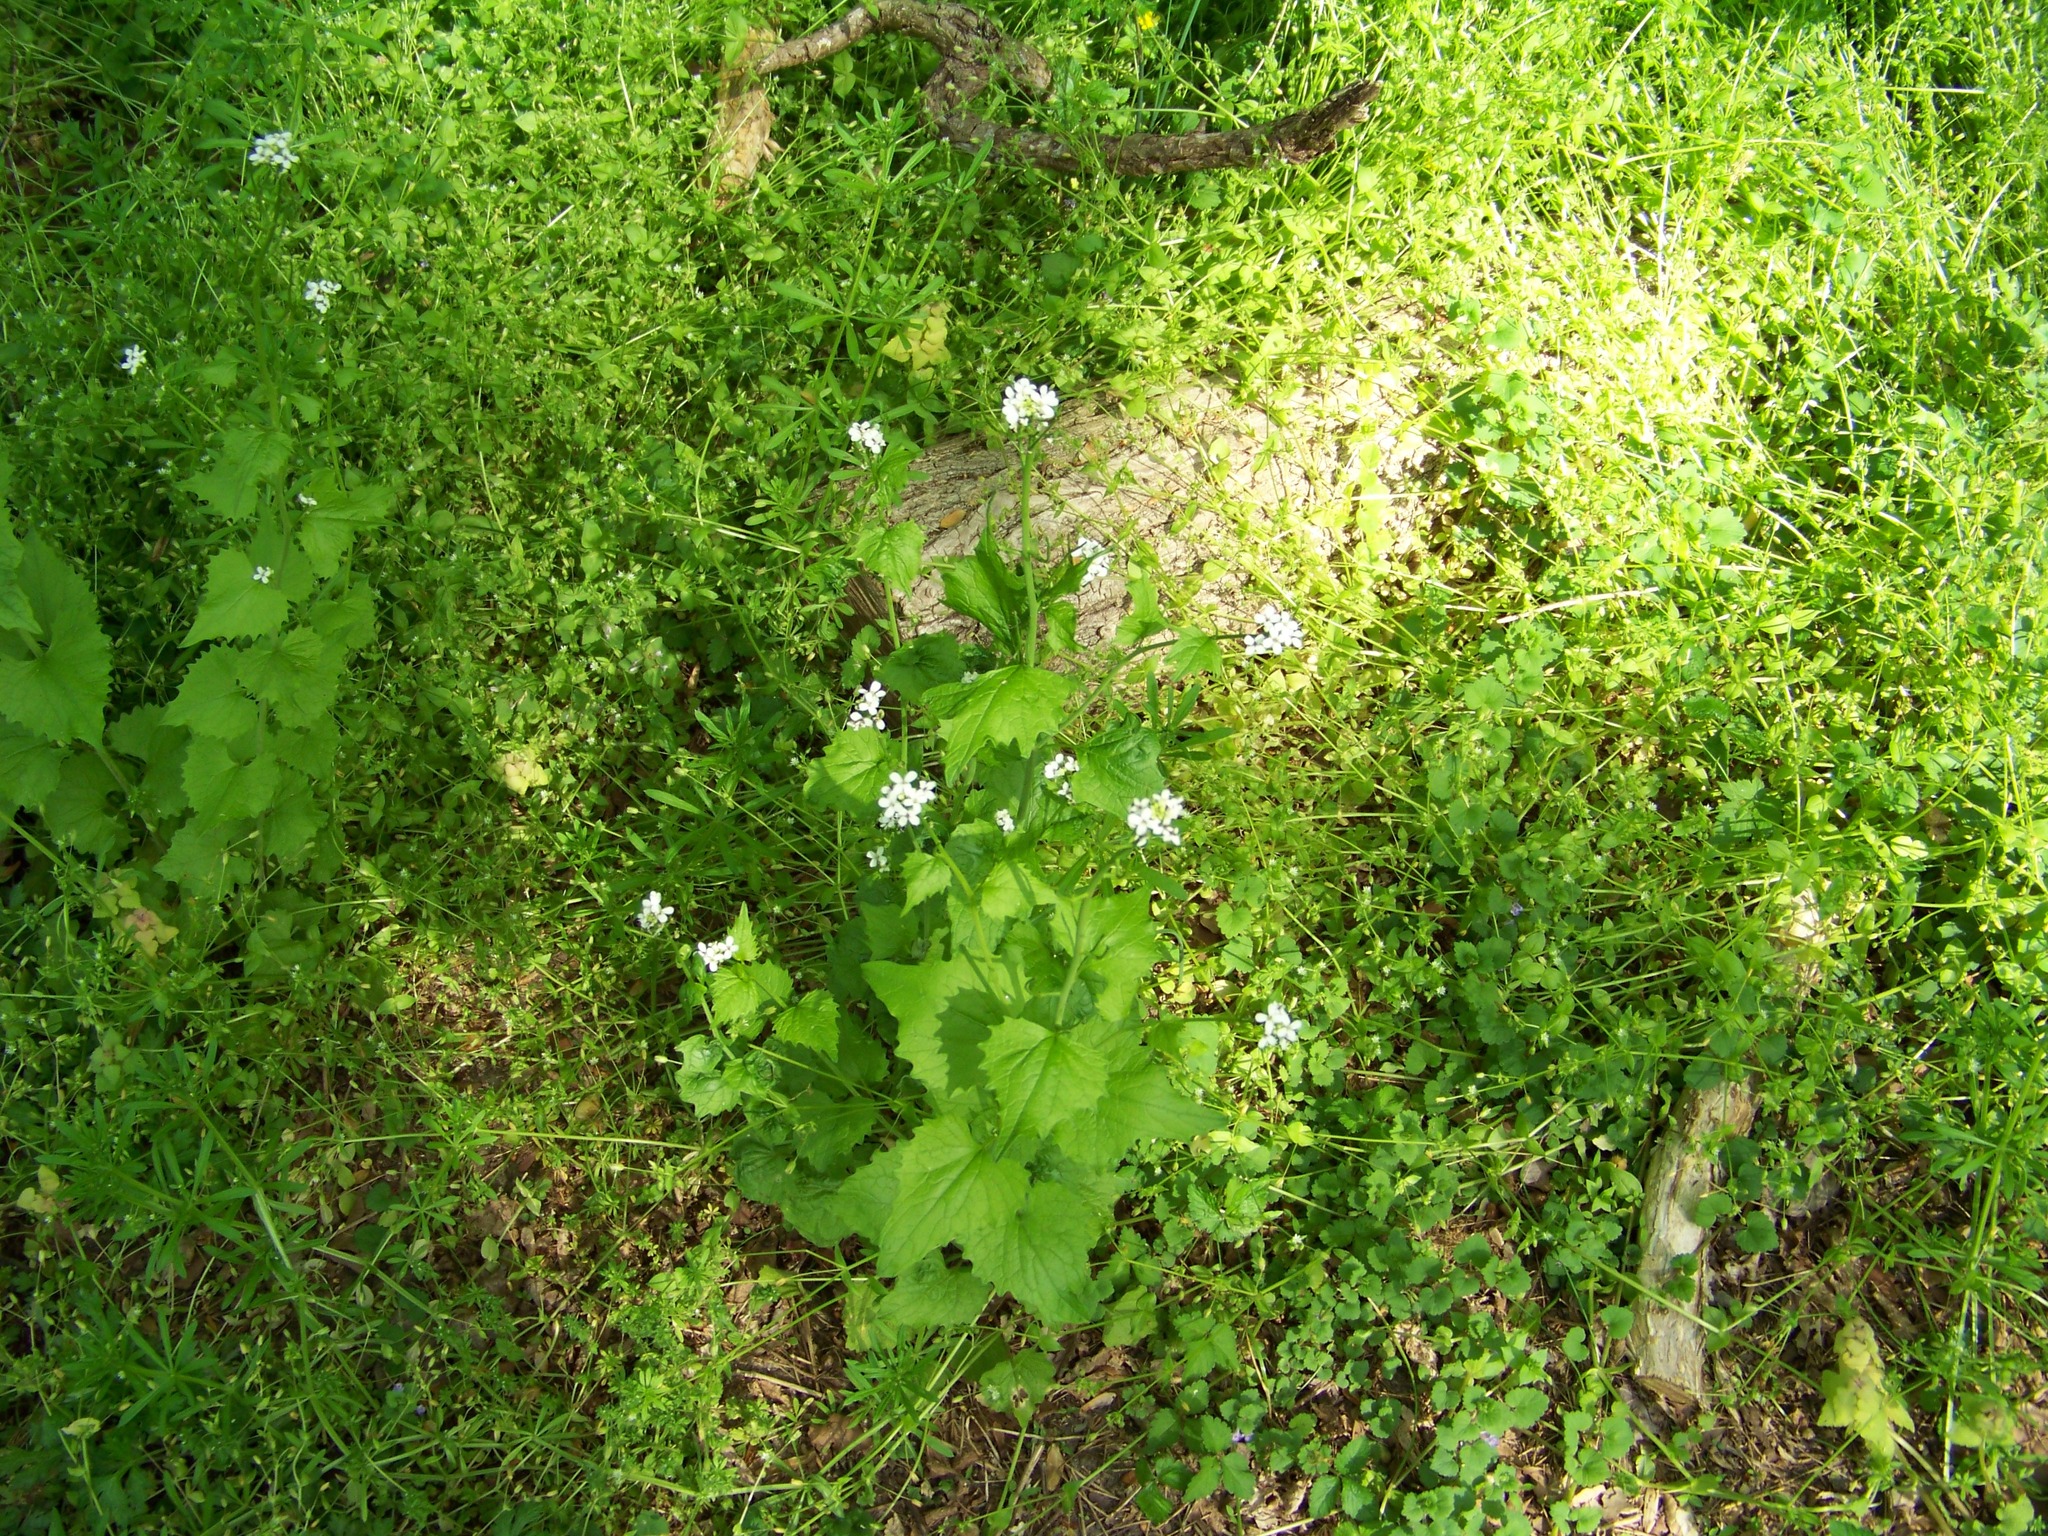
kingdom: Plantae
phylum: Tracheophyta
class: Magnoliopsida
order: Brassicales
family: Brassicaceae
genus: Alliaria
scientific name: Alliaria petiolata
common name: Garlic mustard
